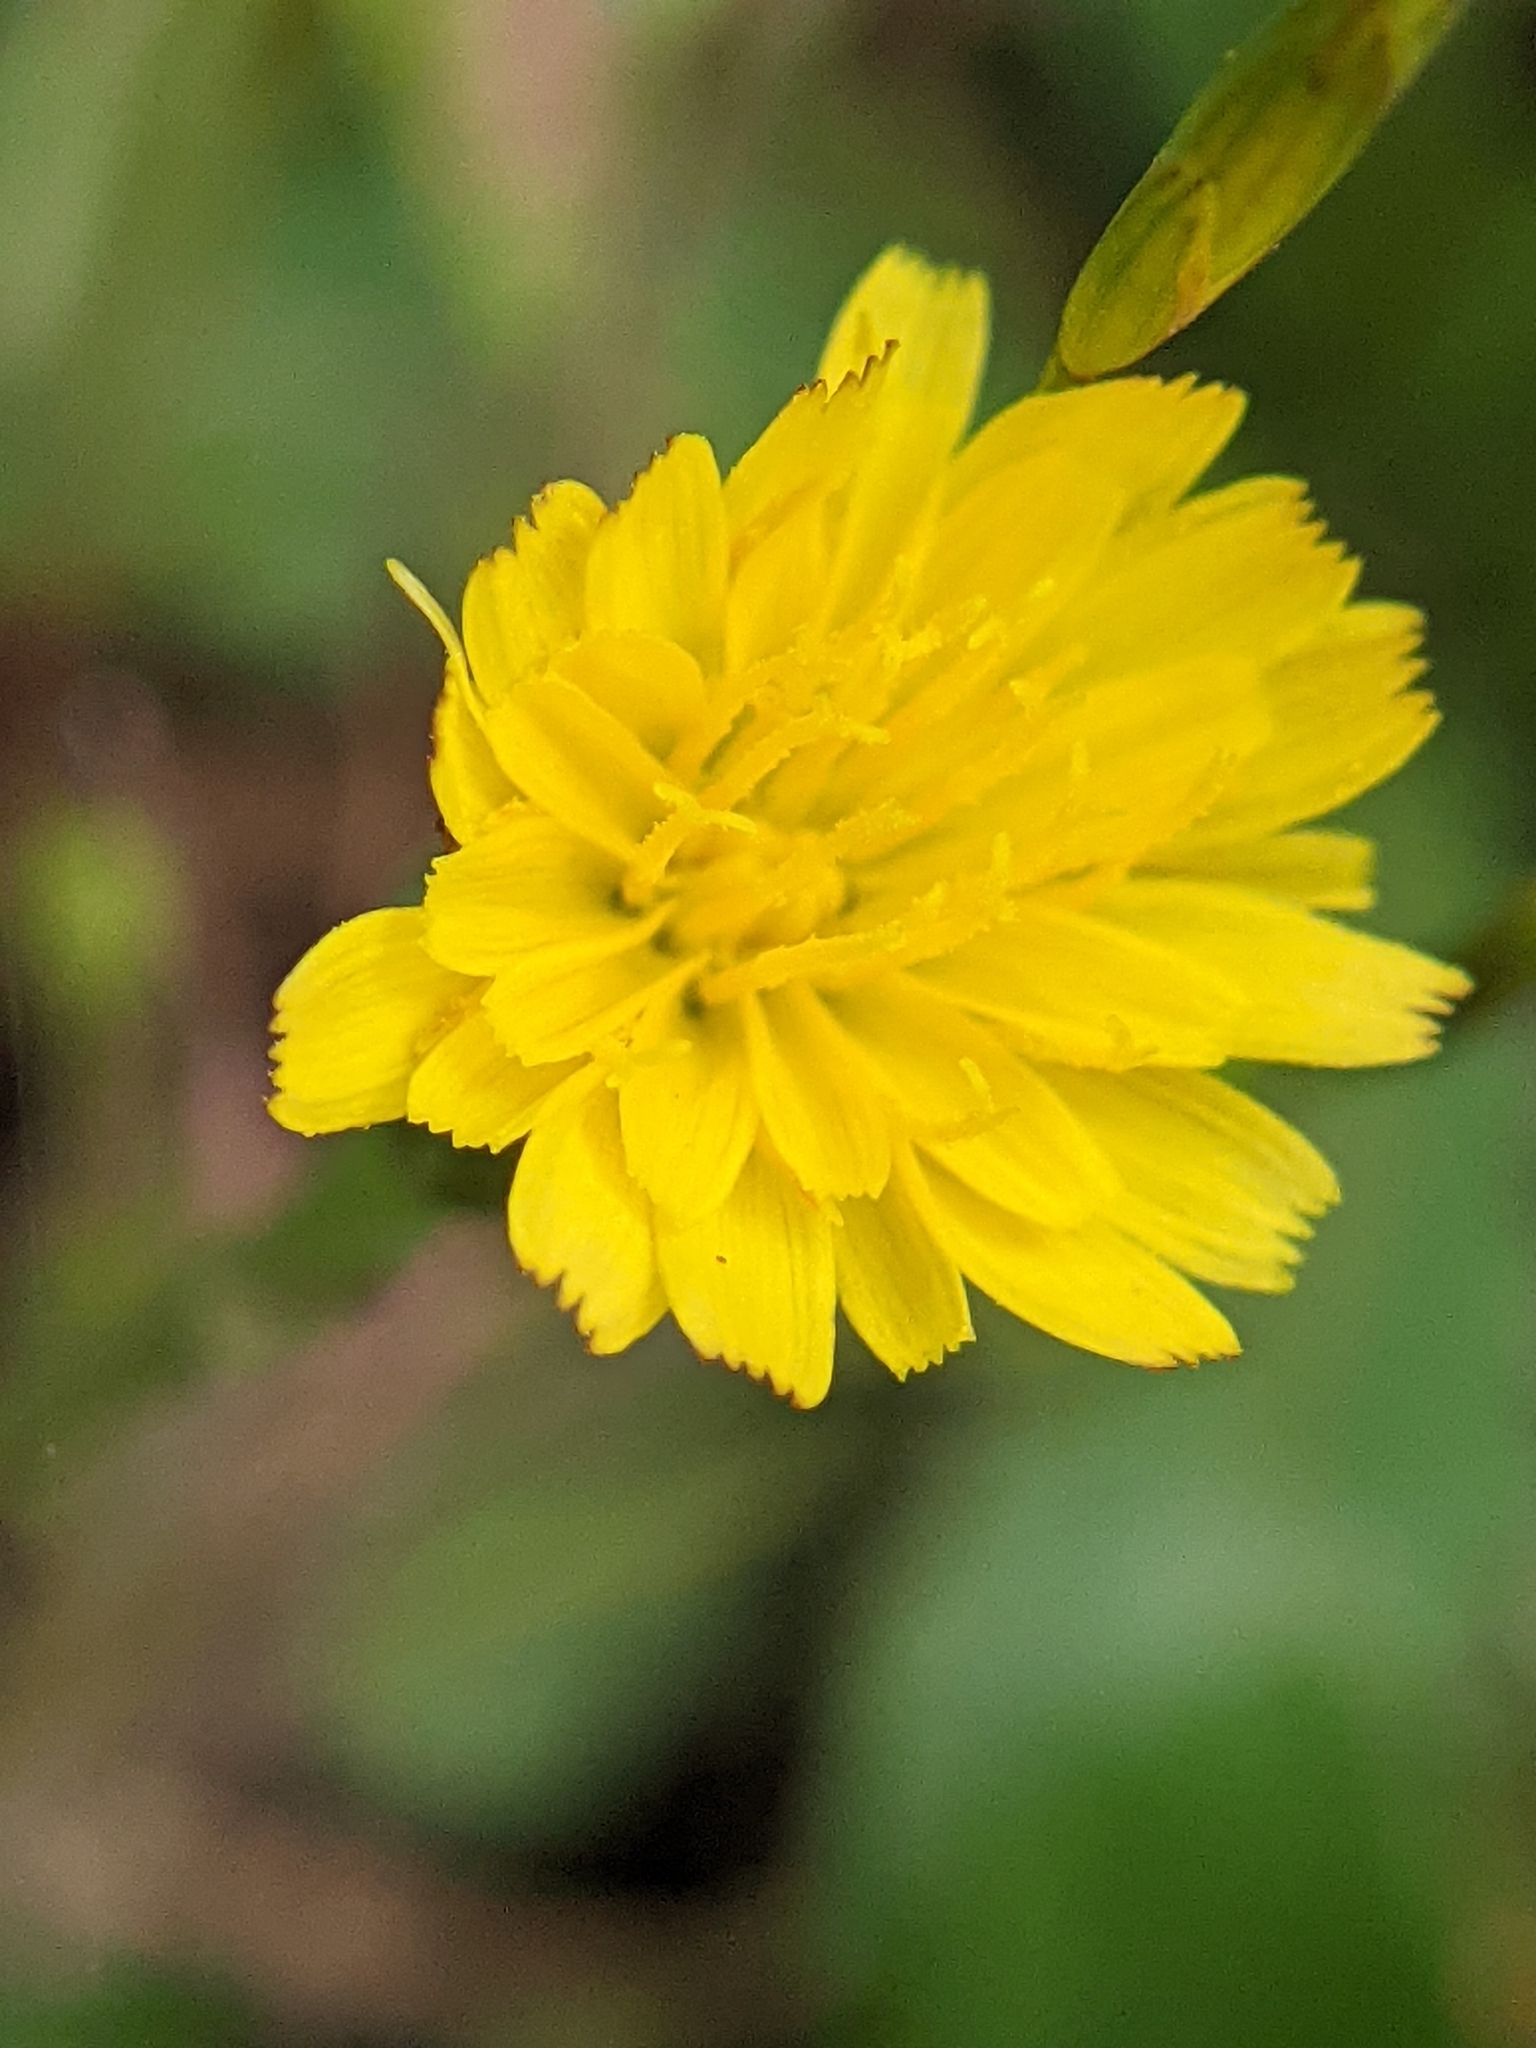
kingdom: Plantae
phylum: Tracheophyta
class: Magnoliopsida
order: Asterales
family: Asteraceae
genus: Hypochaeris
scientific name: Hypochaeris glabra
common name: Smooth catsear
